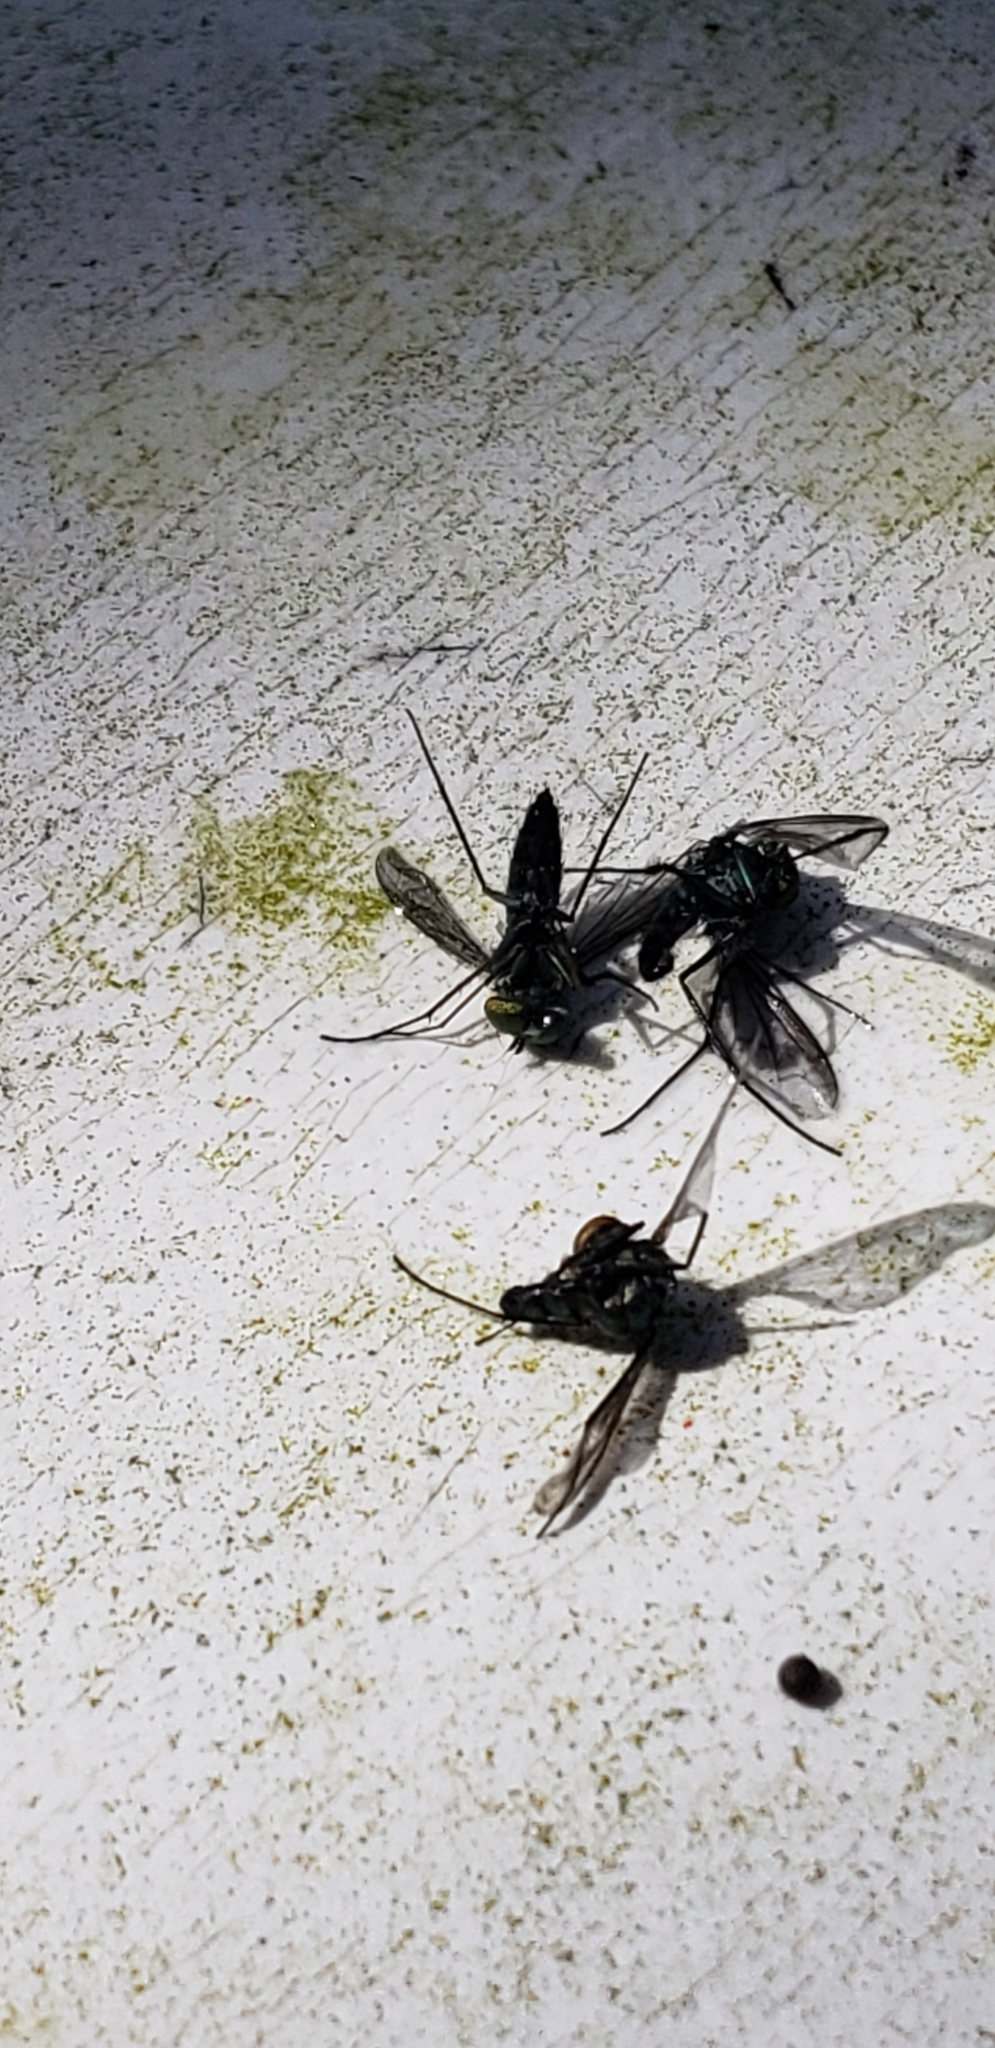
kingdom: Animalia
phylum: Arthropoda
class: Insecta
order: Diptera
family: Dolichopodidae
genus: Condylostylus
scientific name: Condylostylus longicornis
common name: Long-legged fly
